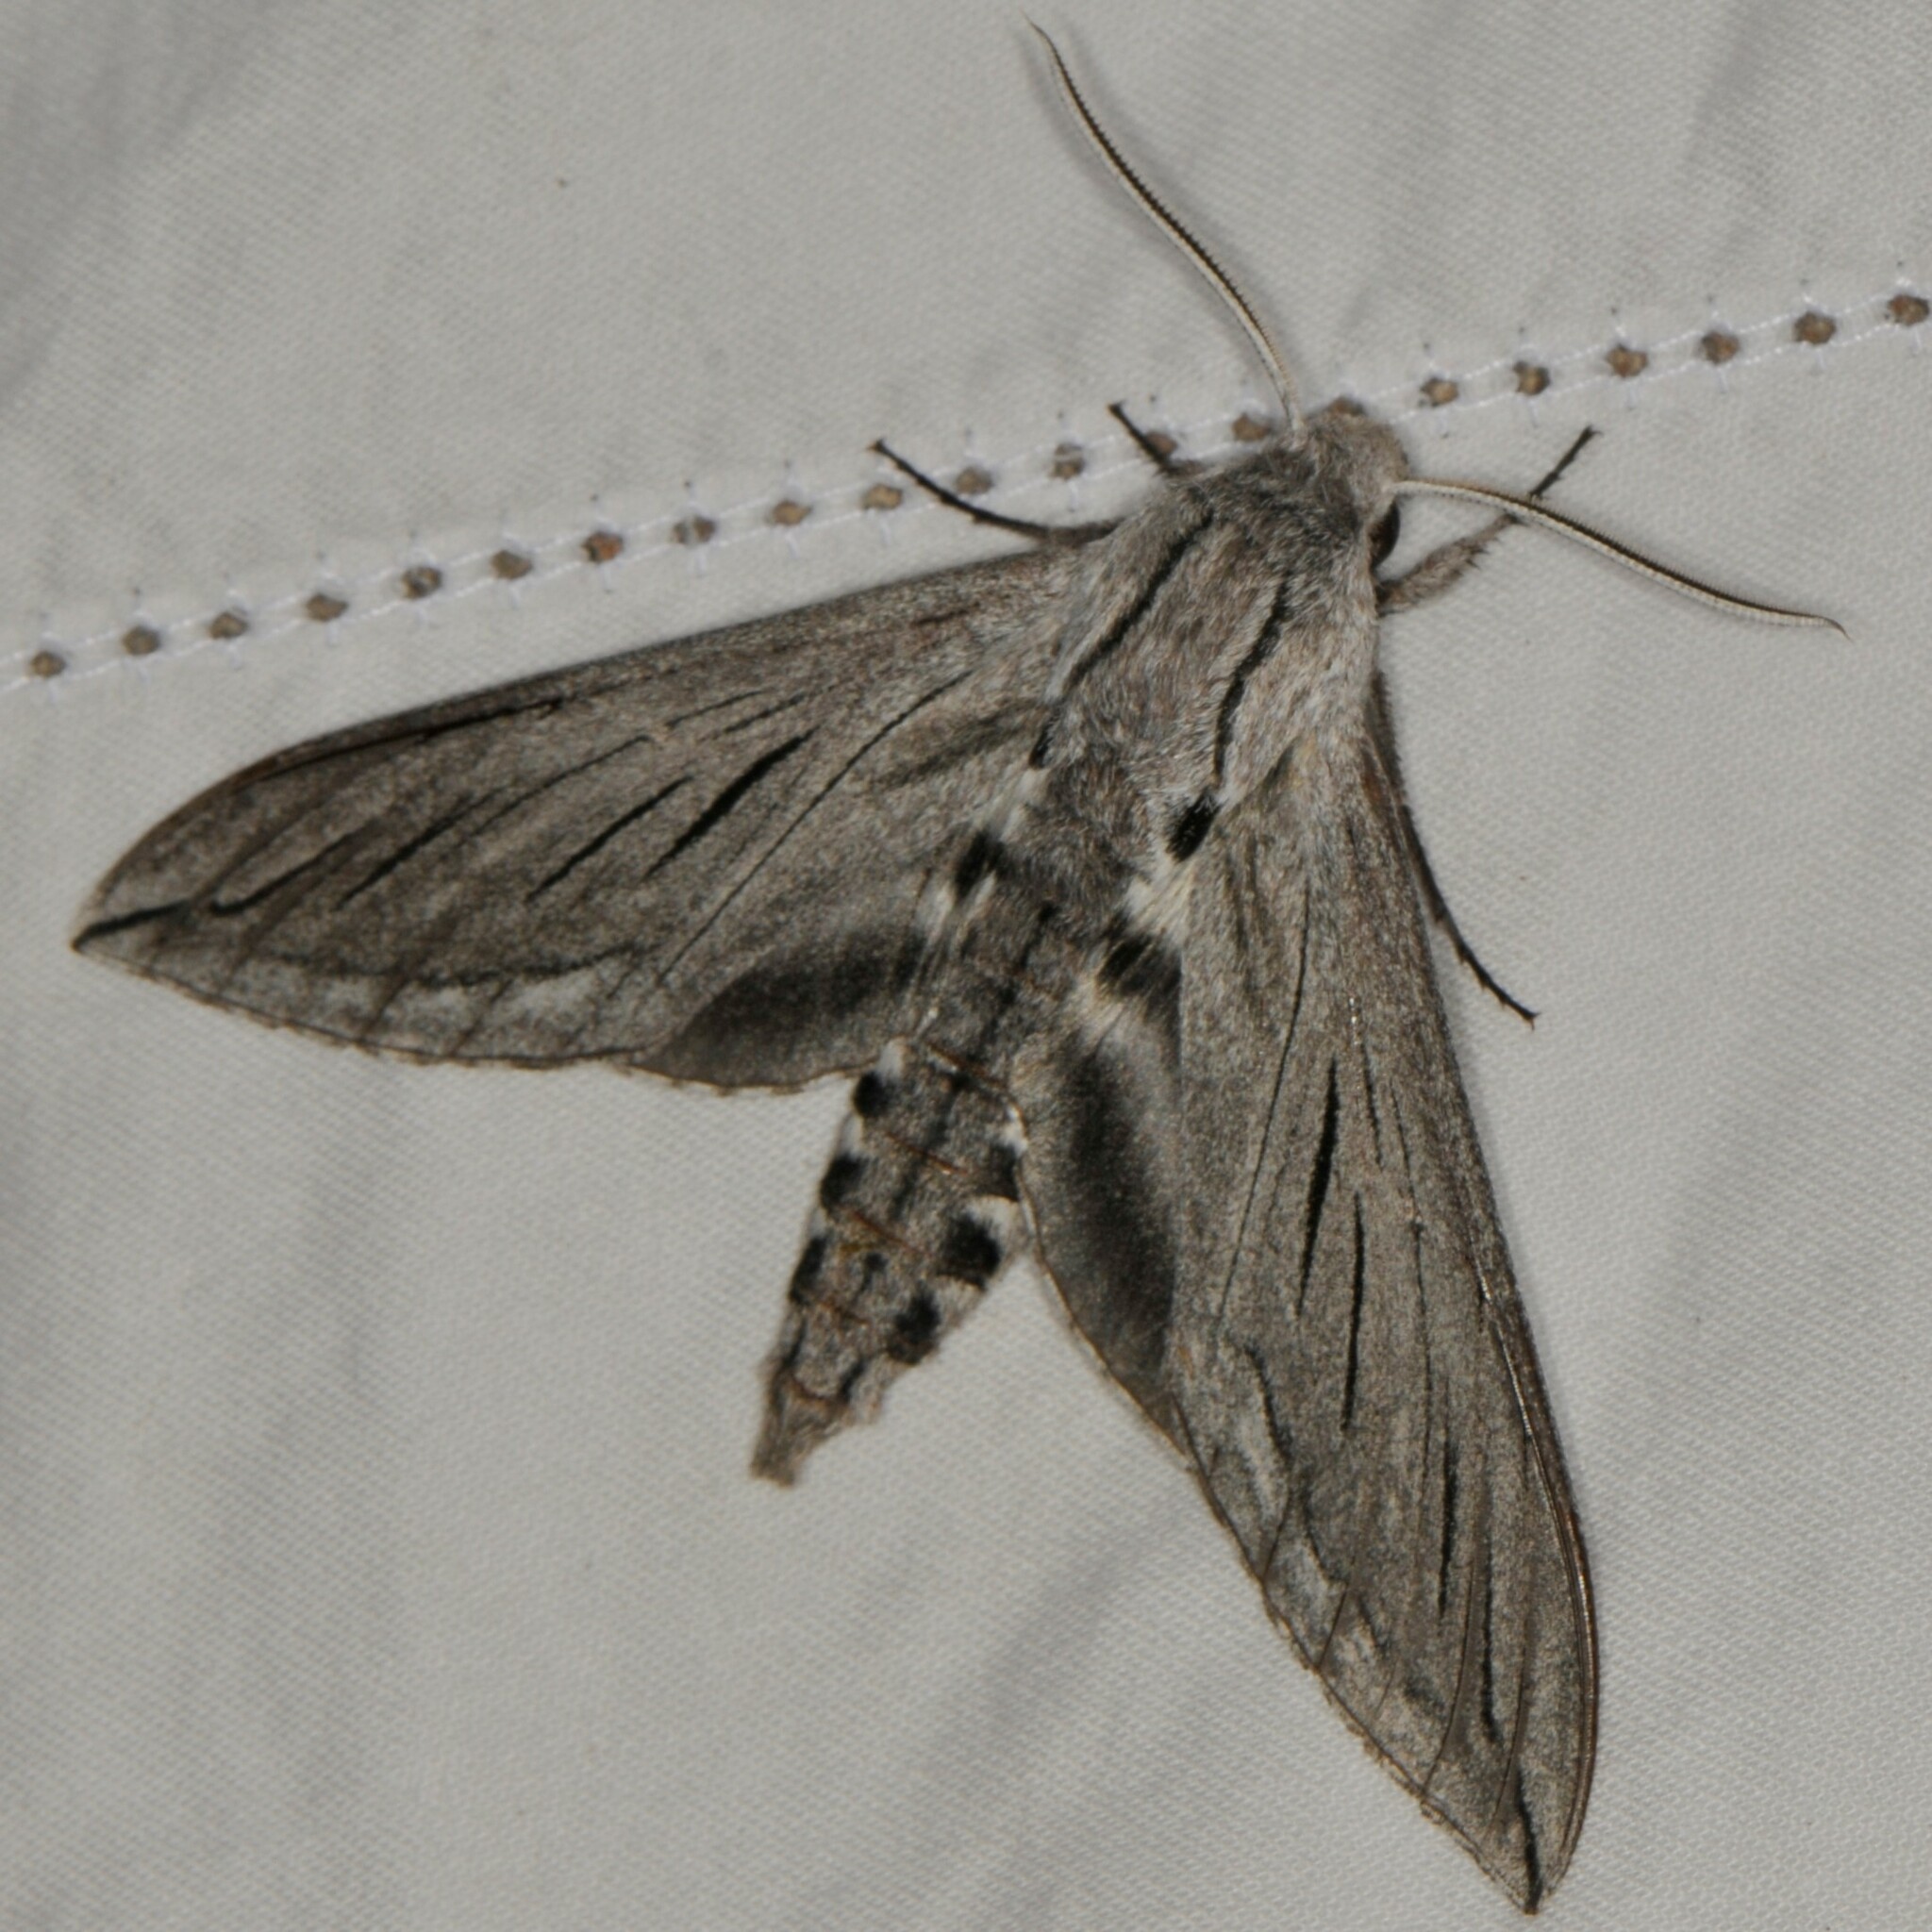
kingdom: Animalia
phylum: Arthropoda
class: Insecta
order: Lepidoptera
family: Sphingidae
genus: Sphinx
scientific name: Sphinx chersis
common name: Great ash sphinx
